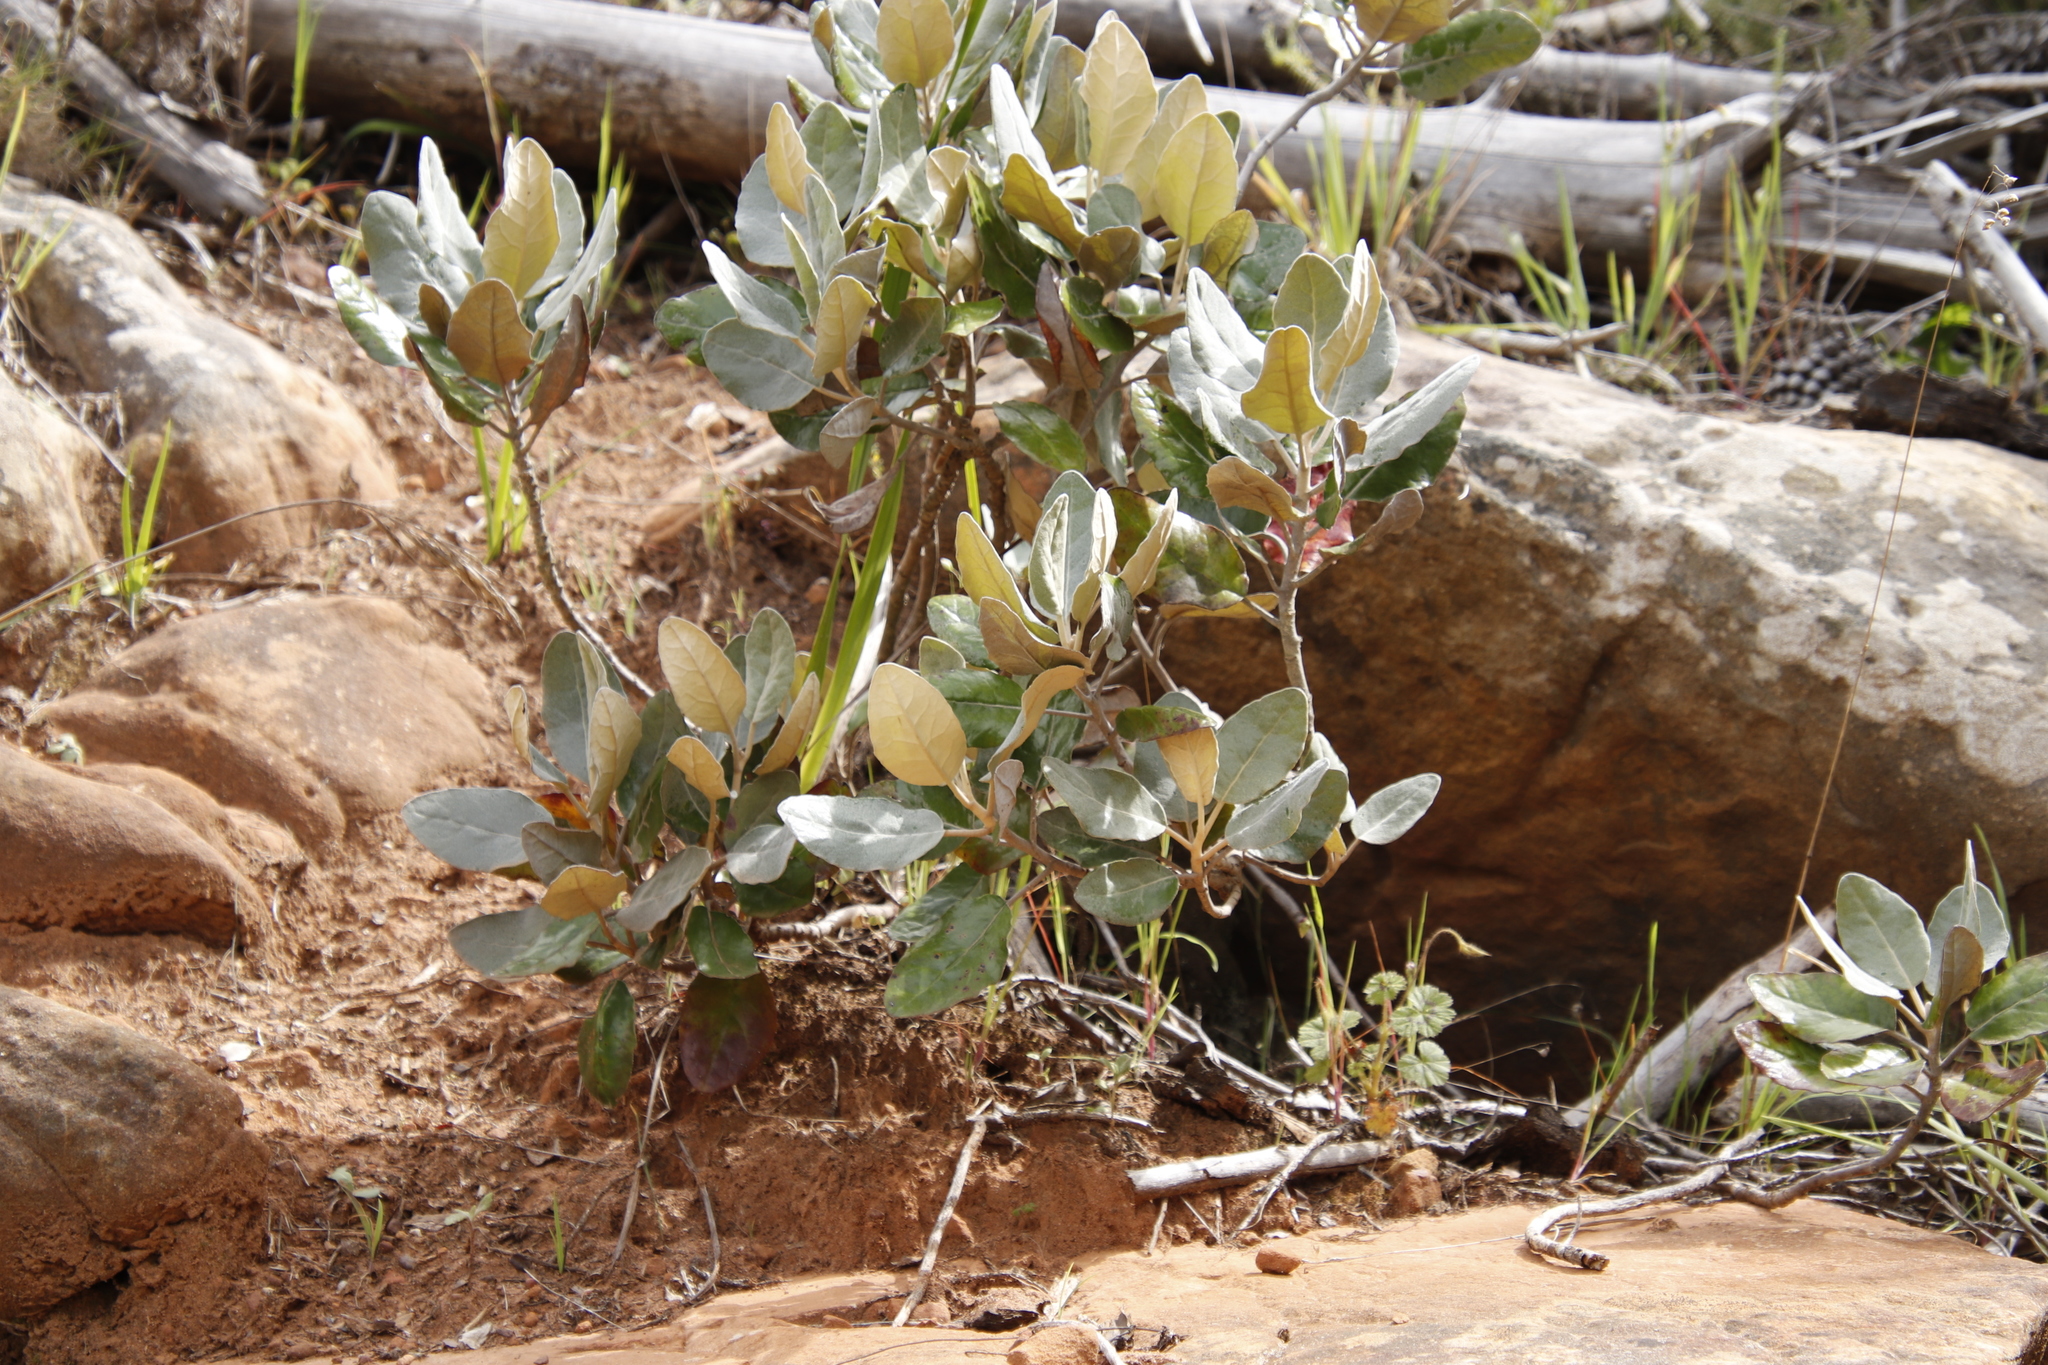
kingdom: Plantae
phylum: Tracheophyta
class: Magnoliopsida
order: Asterales
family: Asteraceae
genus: Capelio
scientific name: Capelio tabularis
